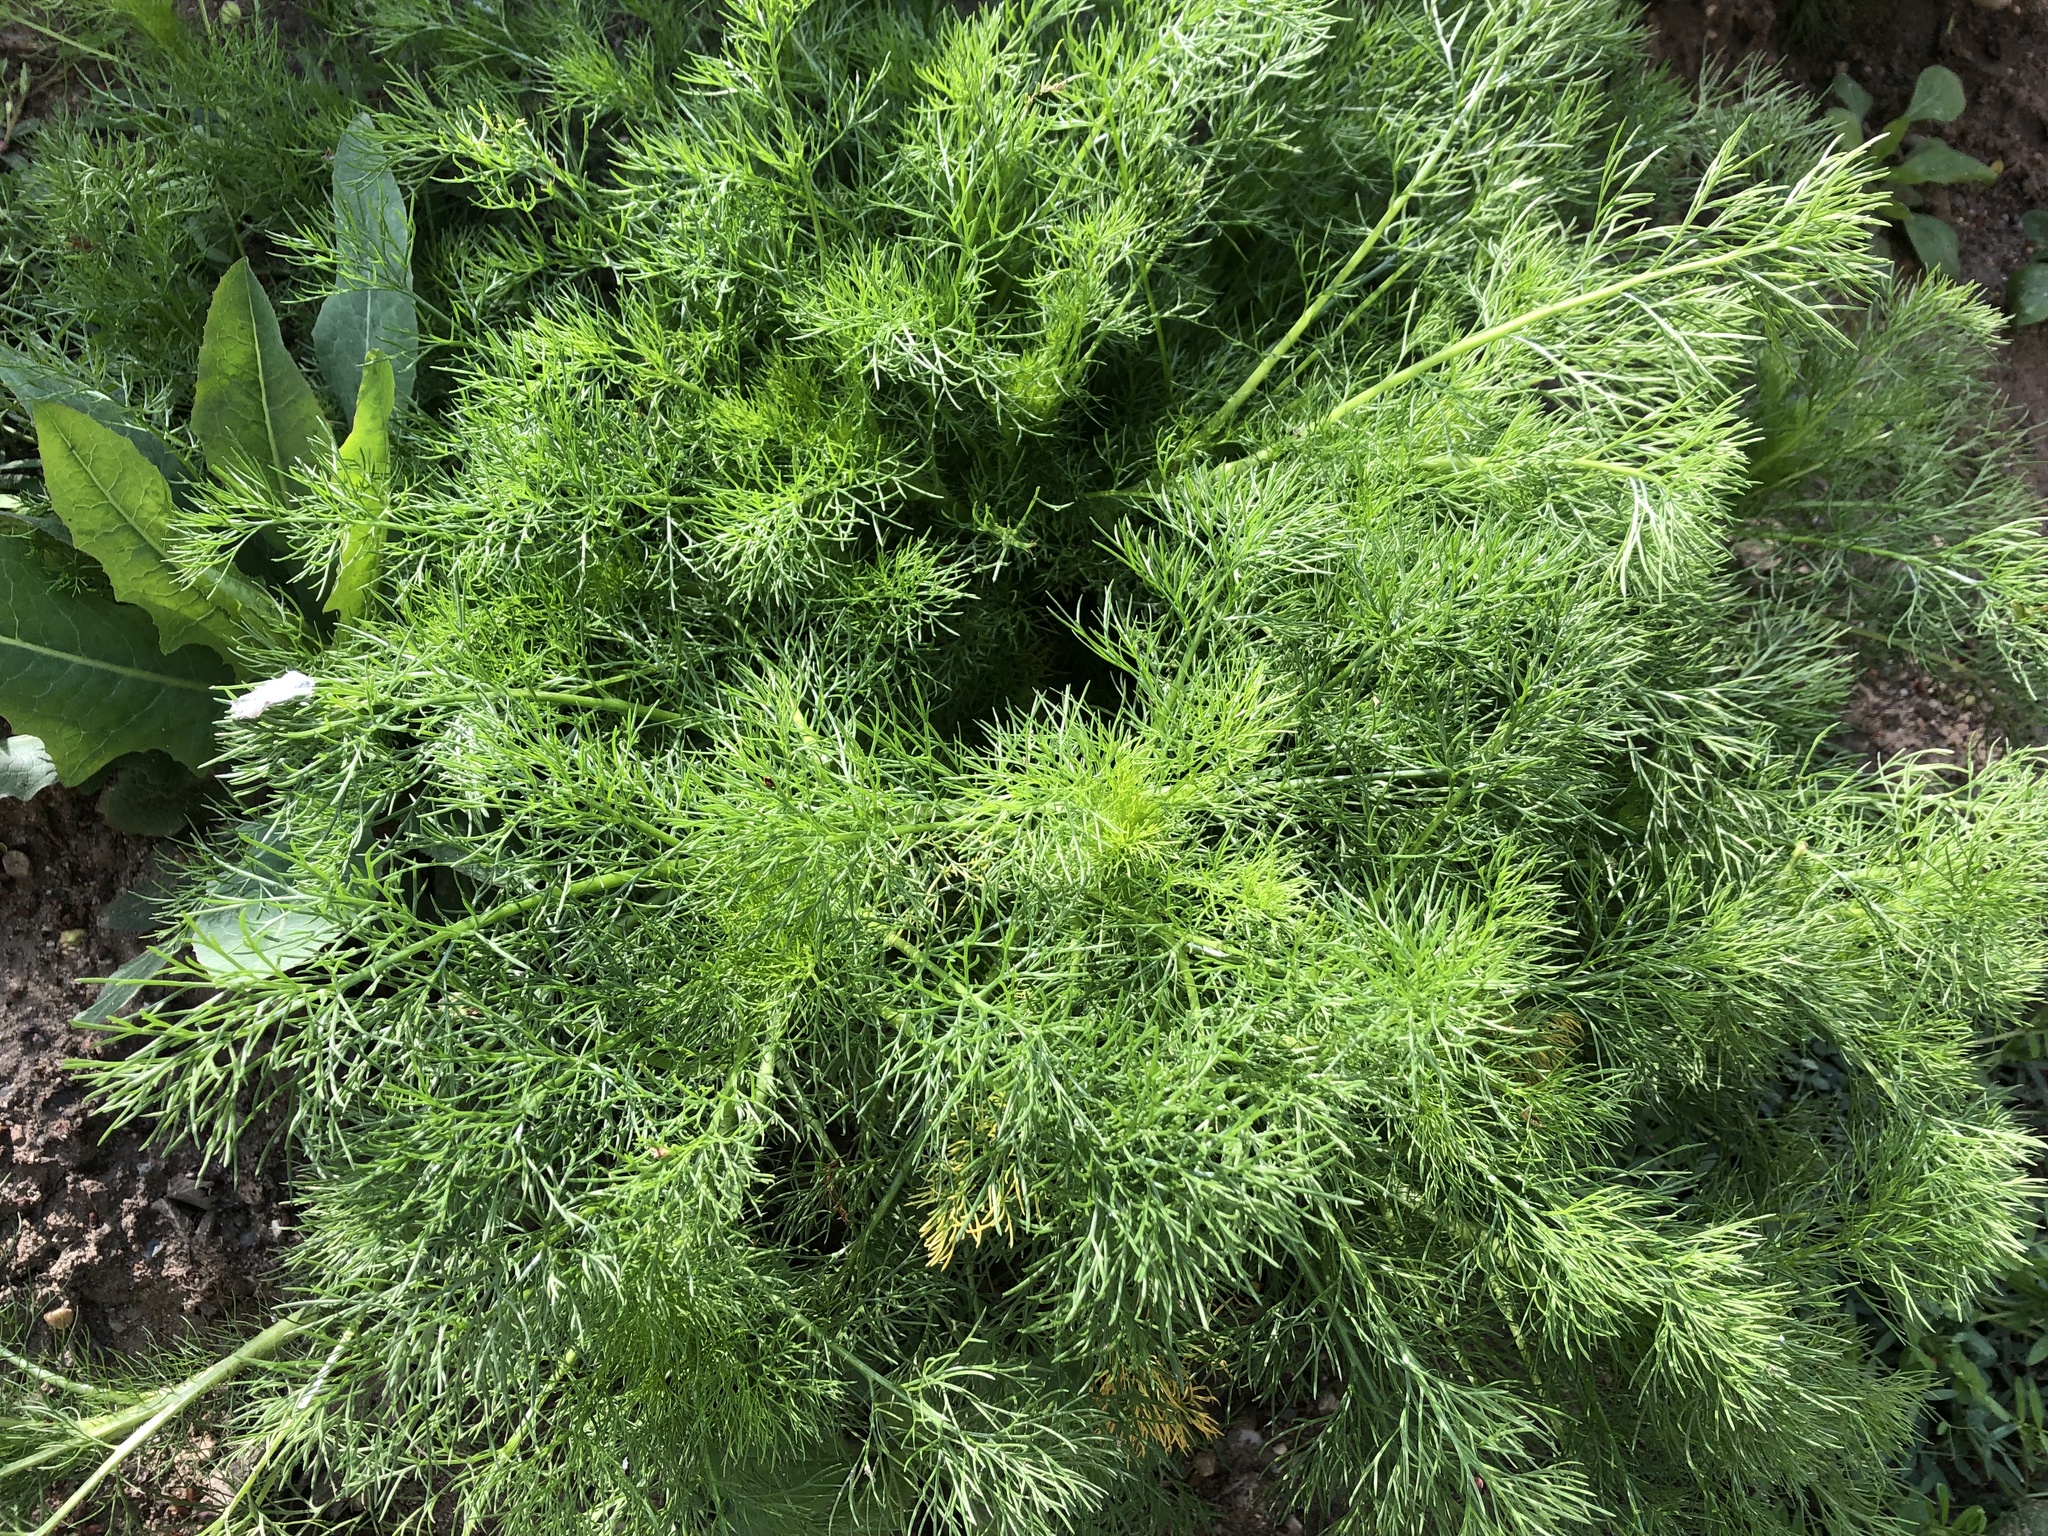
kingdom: Plantae
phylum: Tracheophyta
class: Magnoliopsida
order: Asterales
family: Asteraceae
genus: Tripleurospermum
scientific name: Tripleurospermum inodorum
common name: Scentless mayweed
